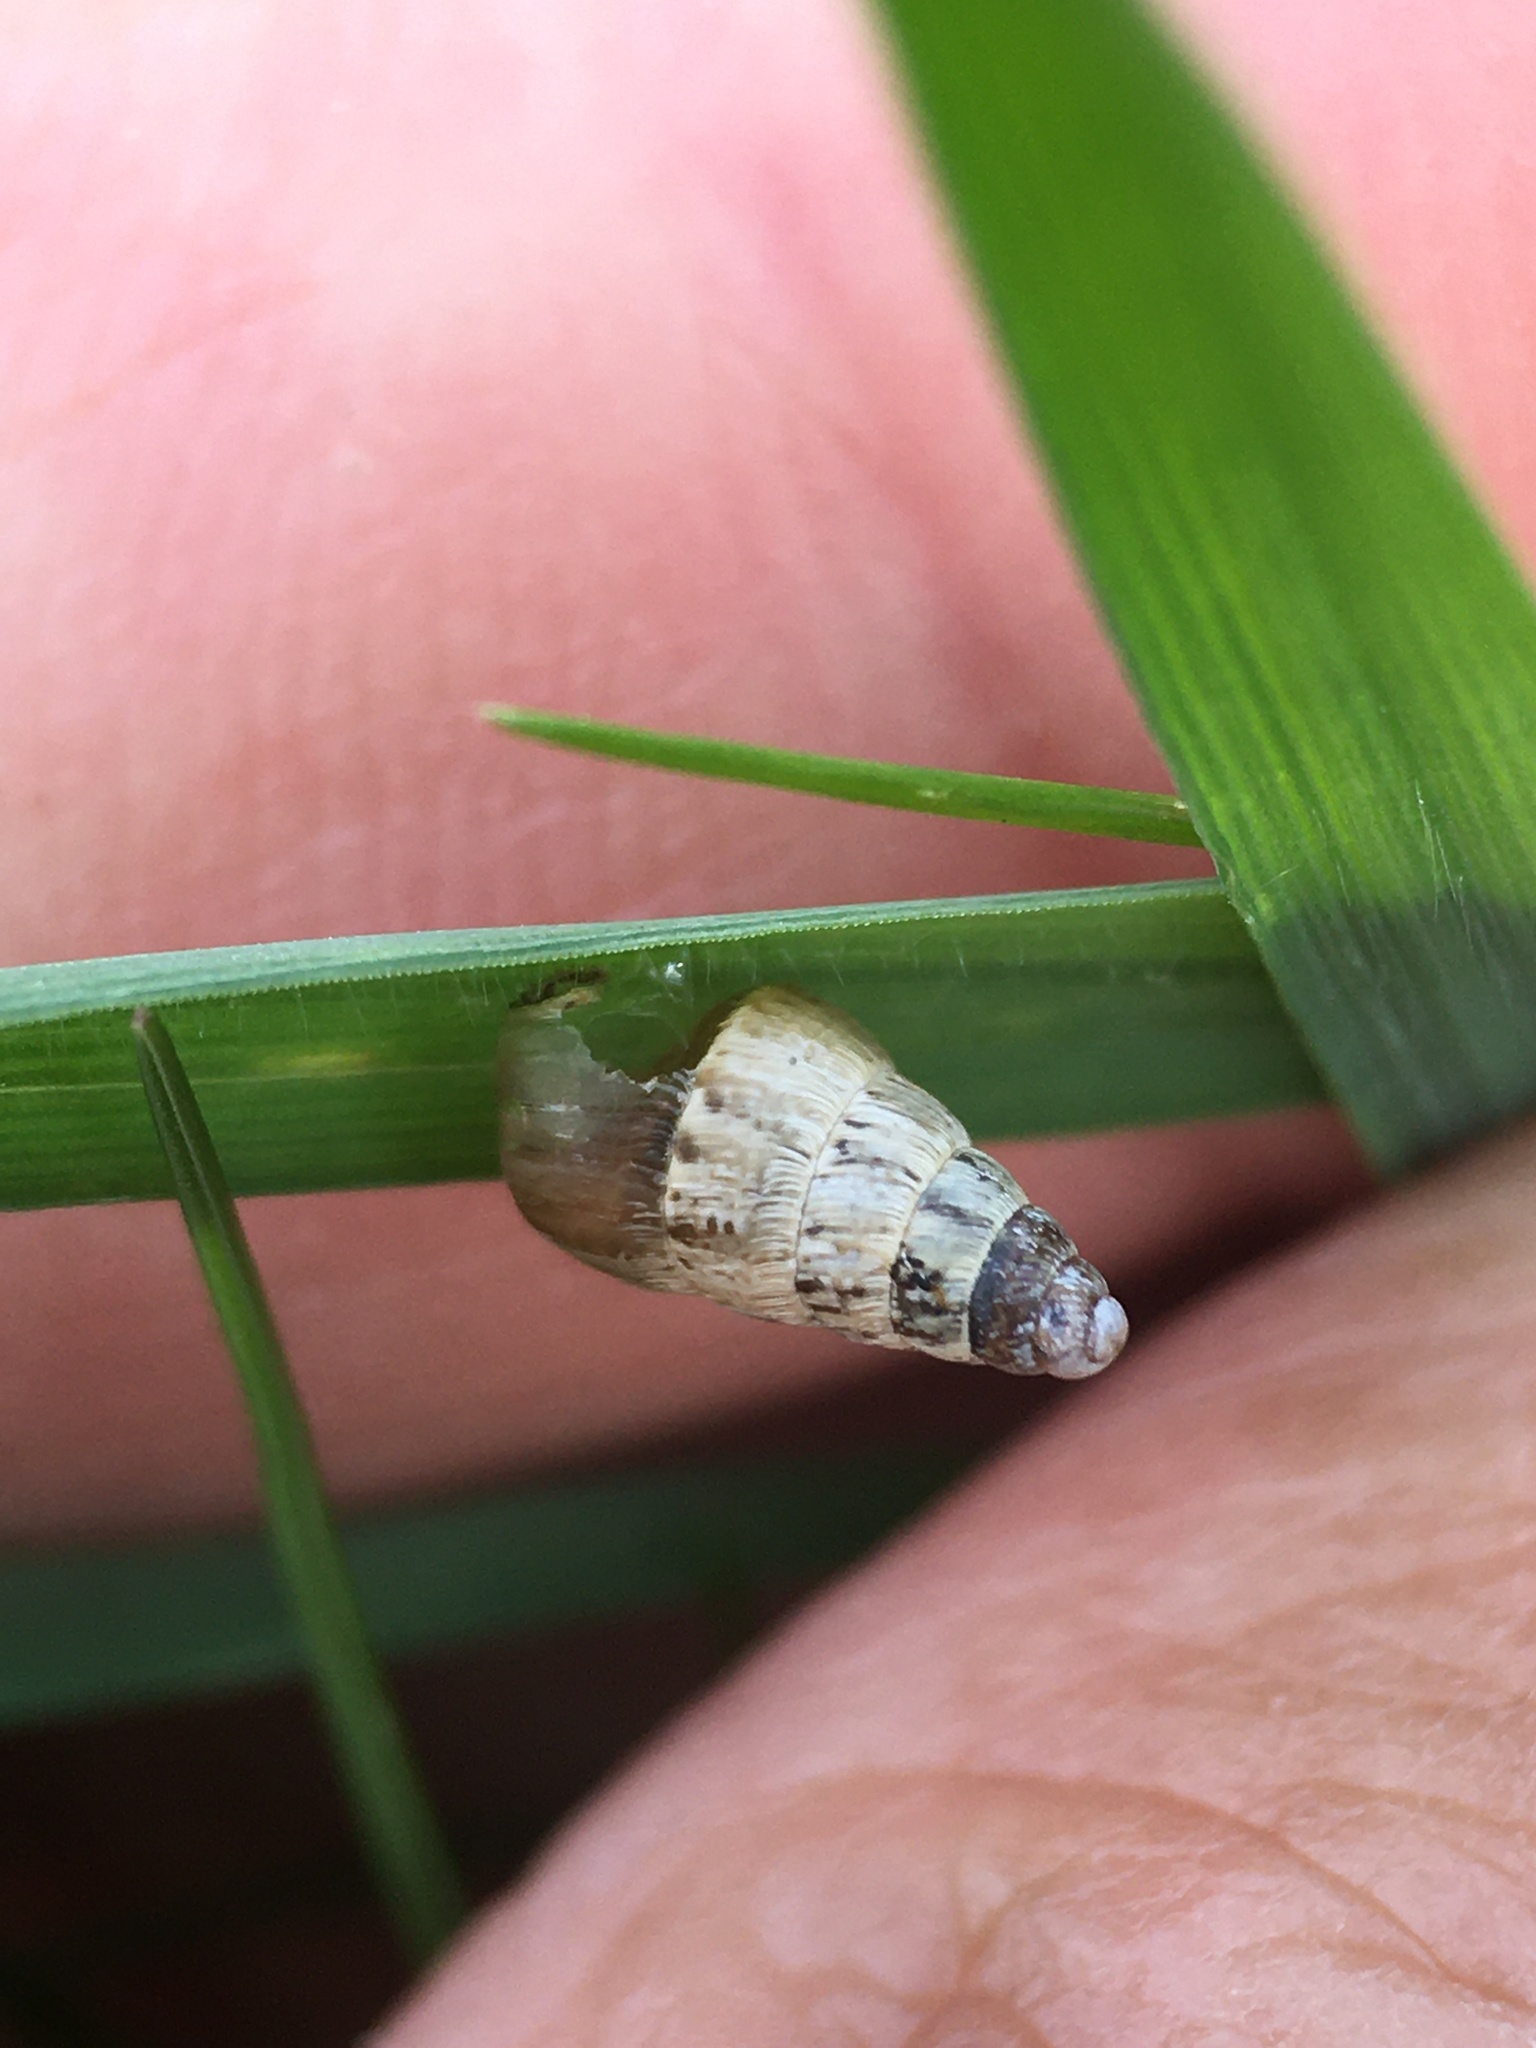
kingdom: Animalia
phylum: Mollusca
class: Gastropoda
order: Stylommatophora
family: Geomitridae
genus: Cochlicella
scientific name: Cochlicella acuta
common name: Pointed snail
